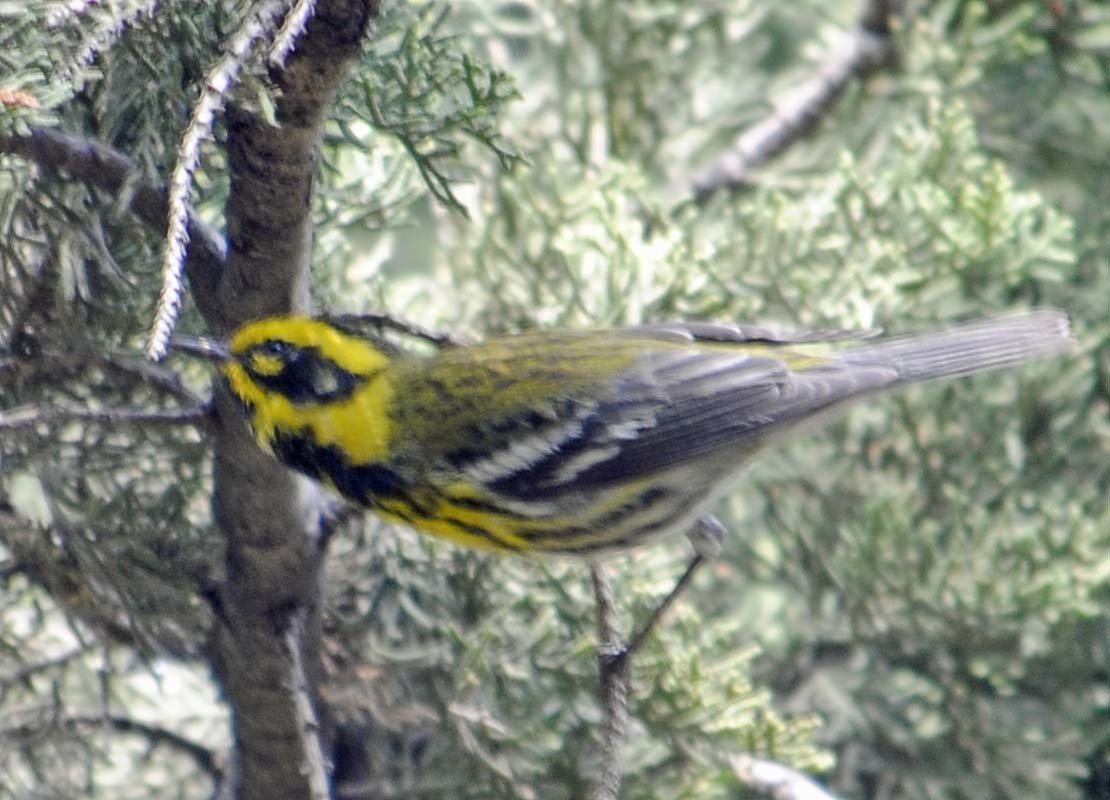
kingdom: Animalia
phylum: Chordata
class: Aves
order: Passeriformes
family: Parulidae
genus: Setophaga
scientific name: Setophaga townsendi
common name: Townsend's warbler
